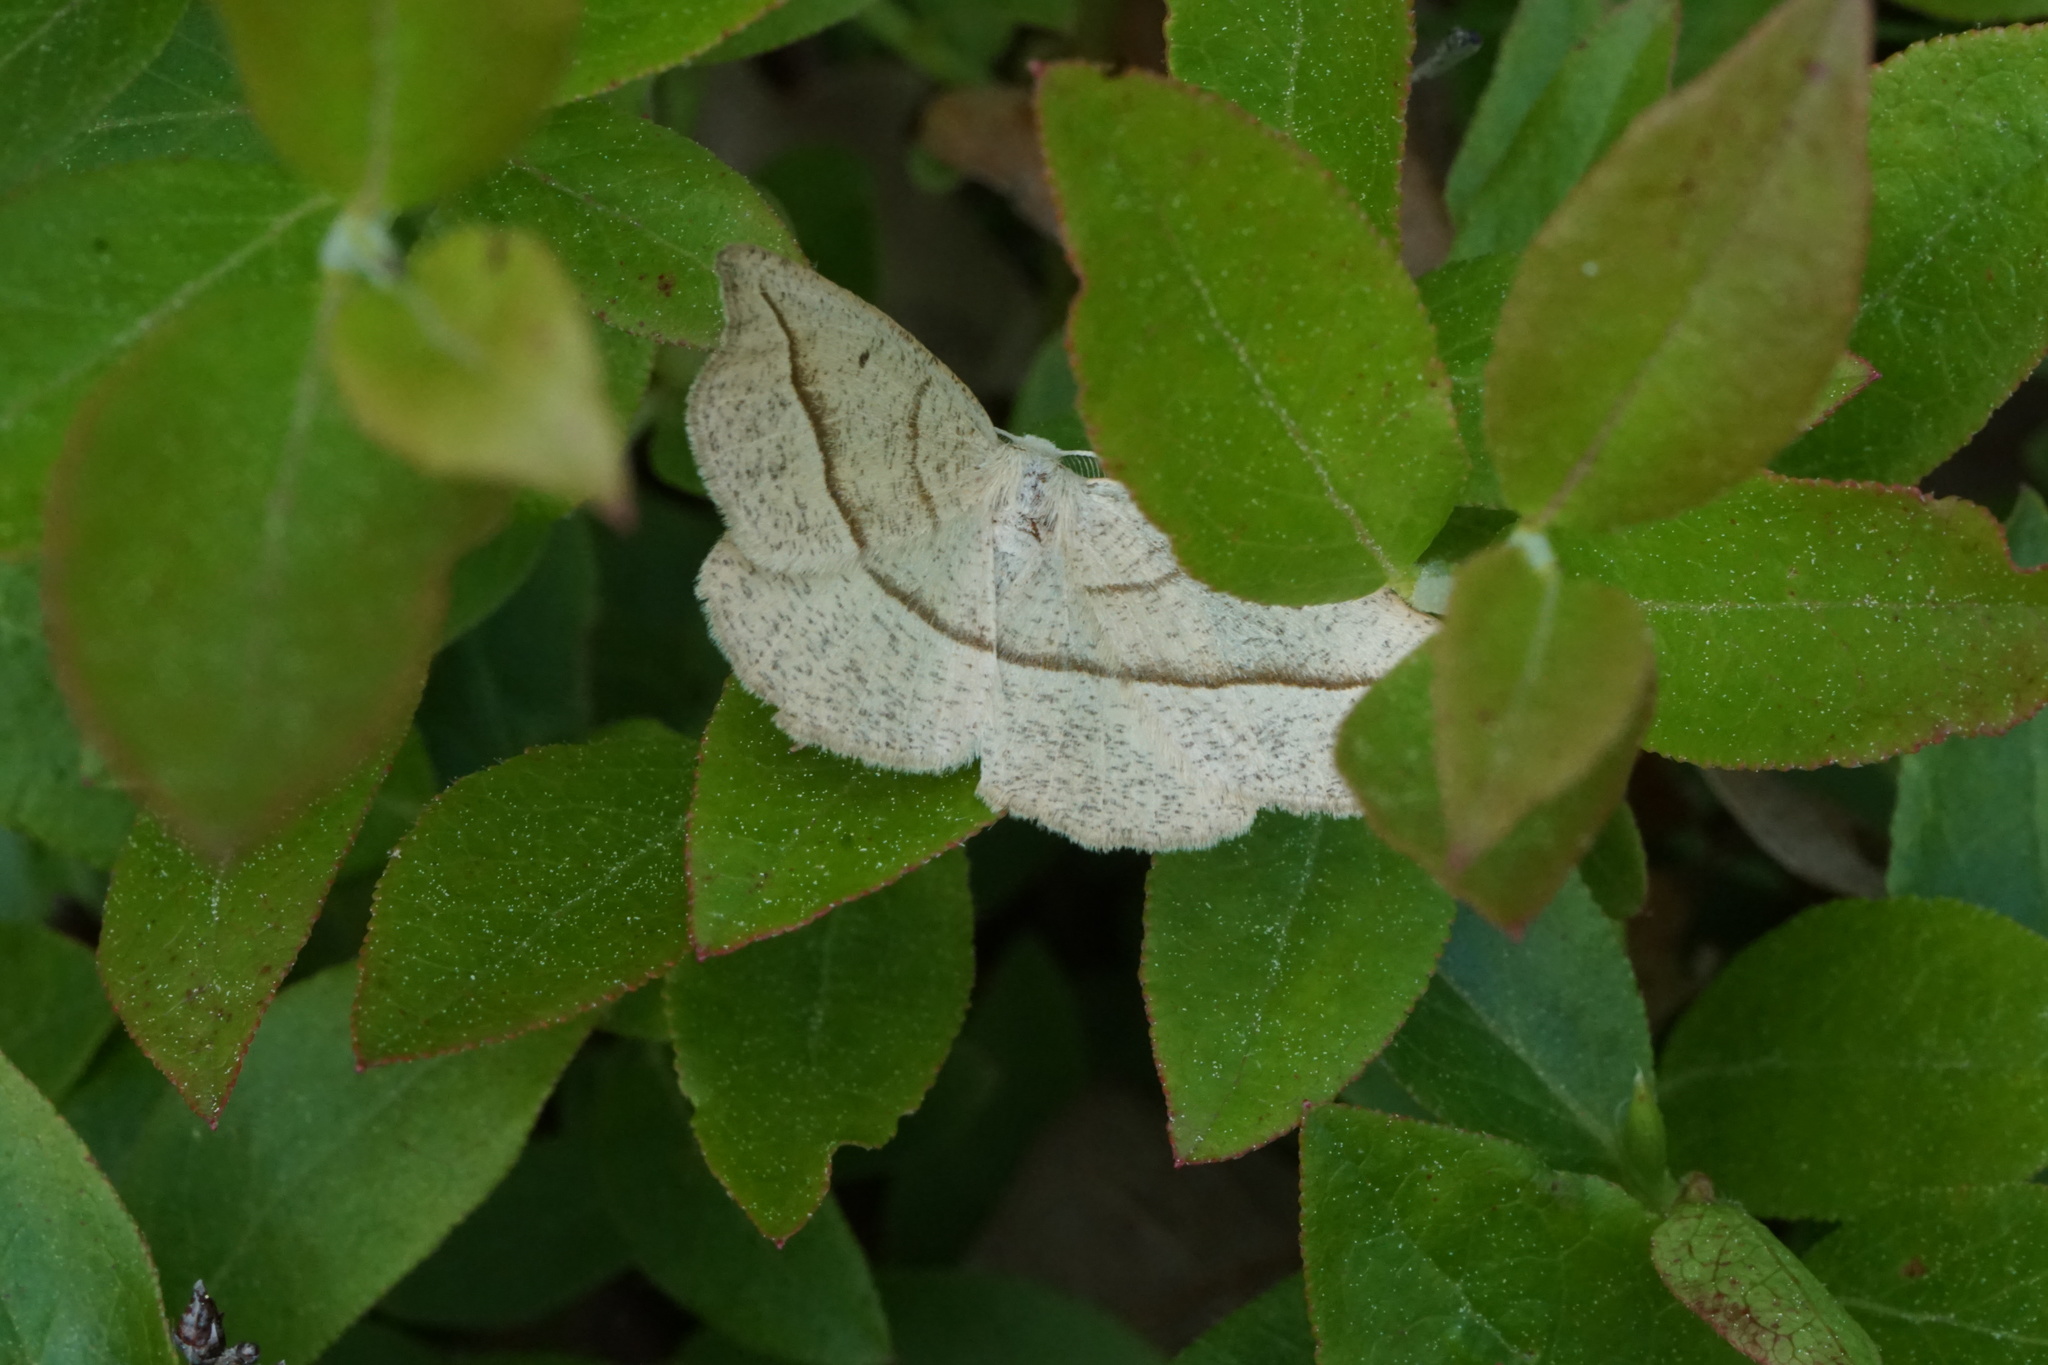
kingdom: Animalia
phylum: Arthropoda
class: Insecta
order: Lepidoptera
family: Geometridae
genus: Eusarca
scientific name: Eusarca confusaria
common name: Confused eusarca
